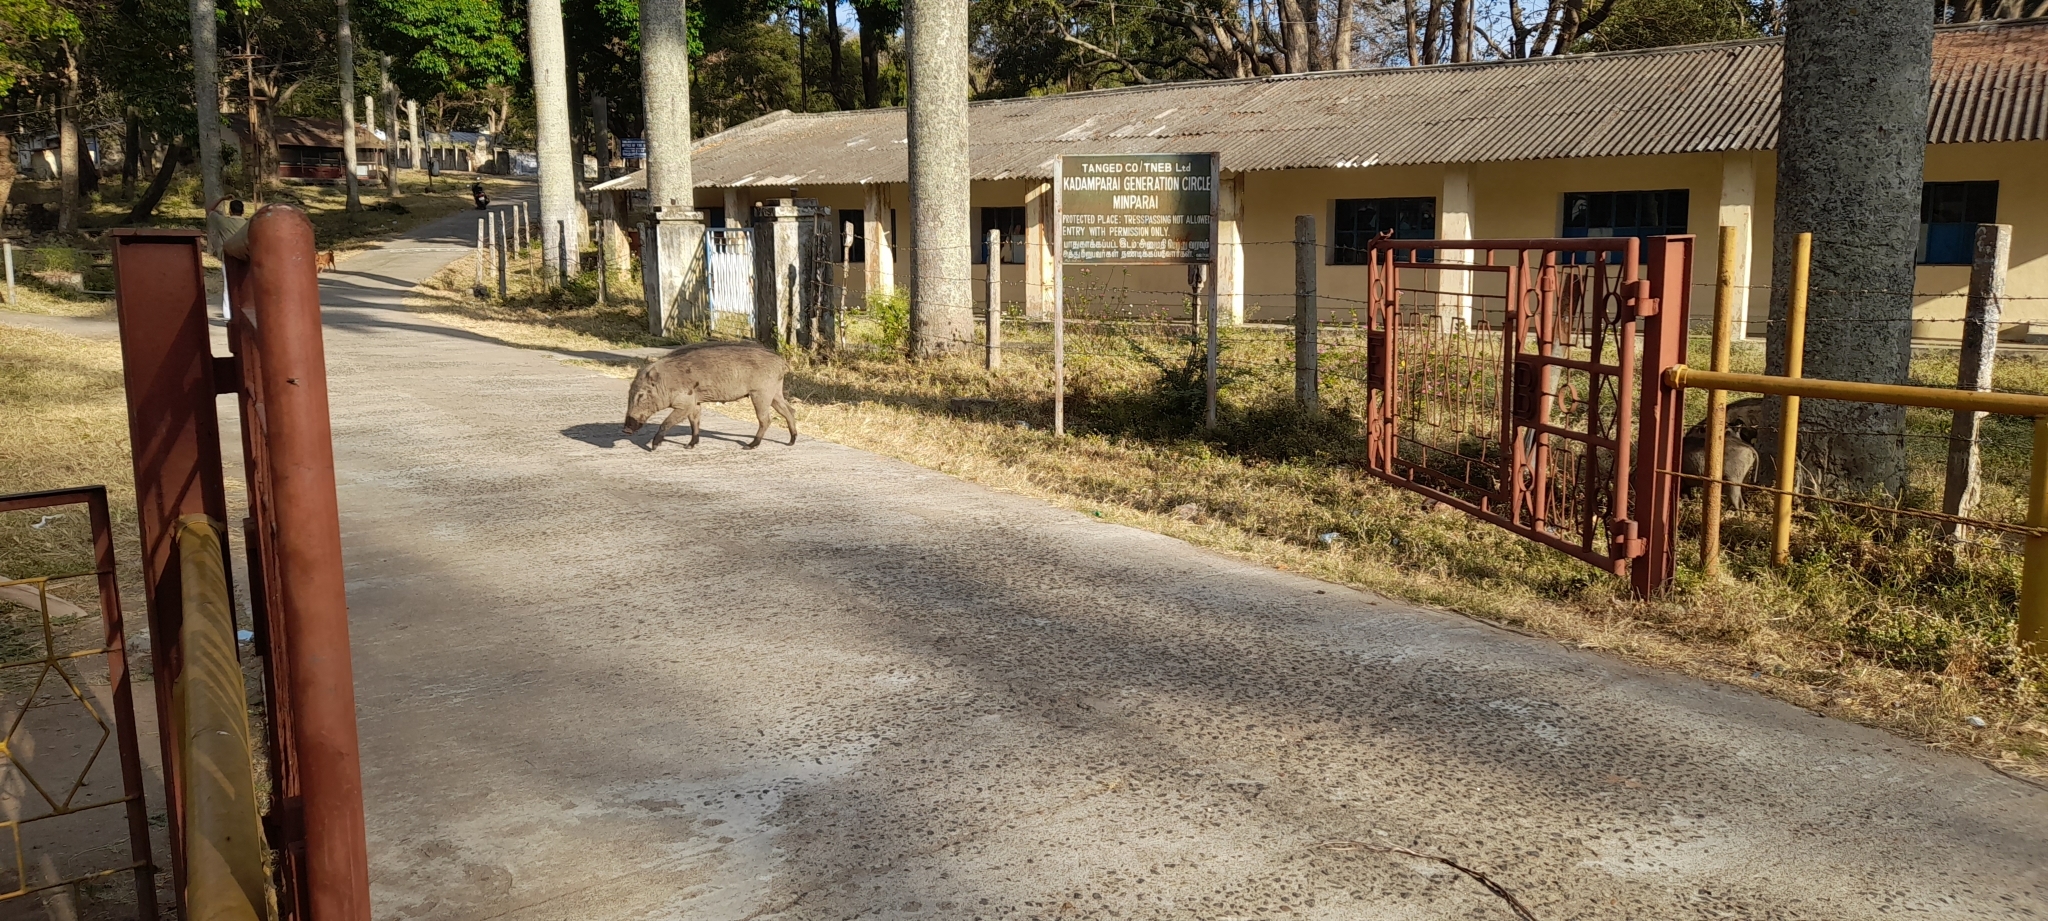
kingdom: Animalia
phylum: Chordata
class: Mammalia
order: Artiodactyla
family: Suidae
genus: Sus
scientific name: Sus scrofa
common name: Wild boar
